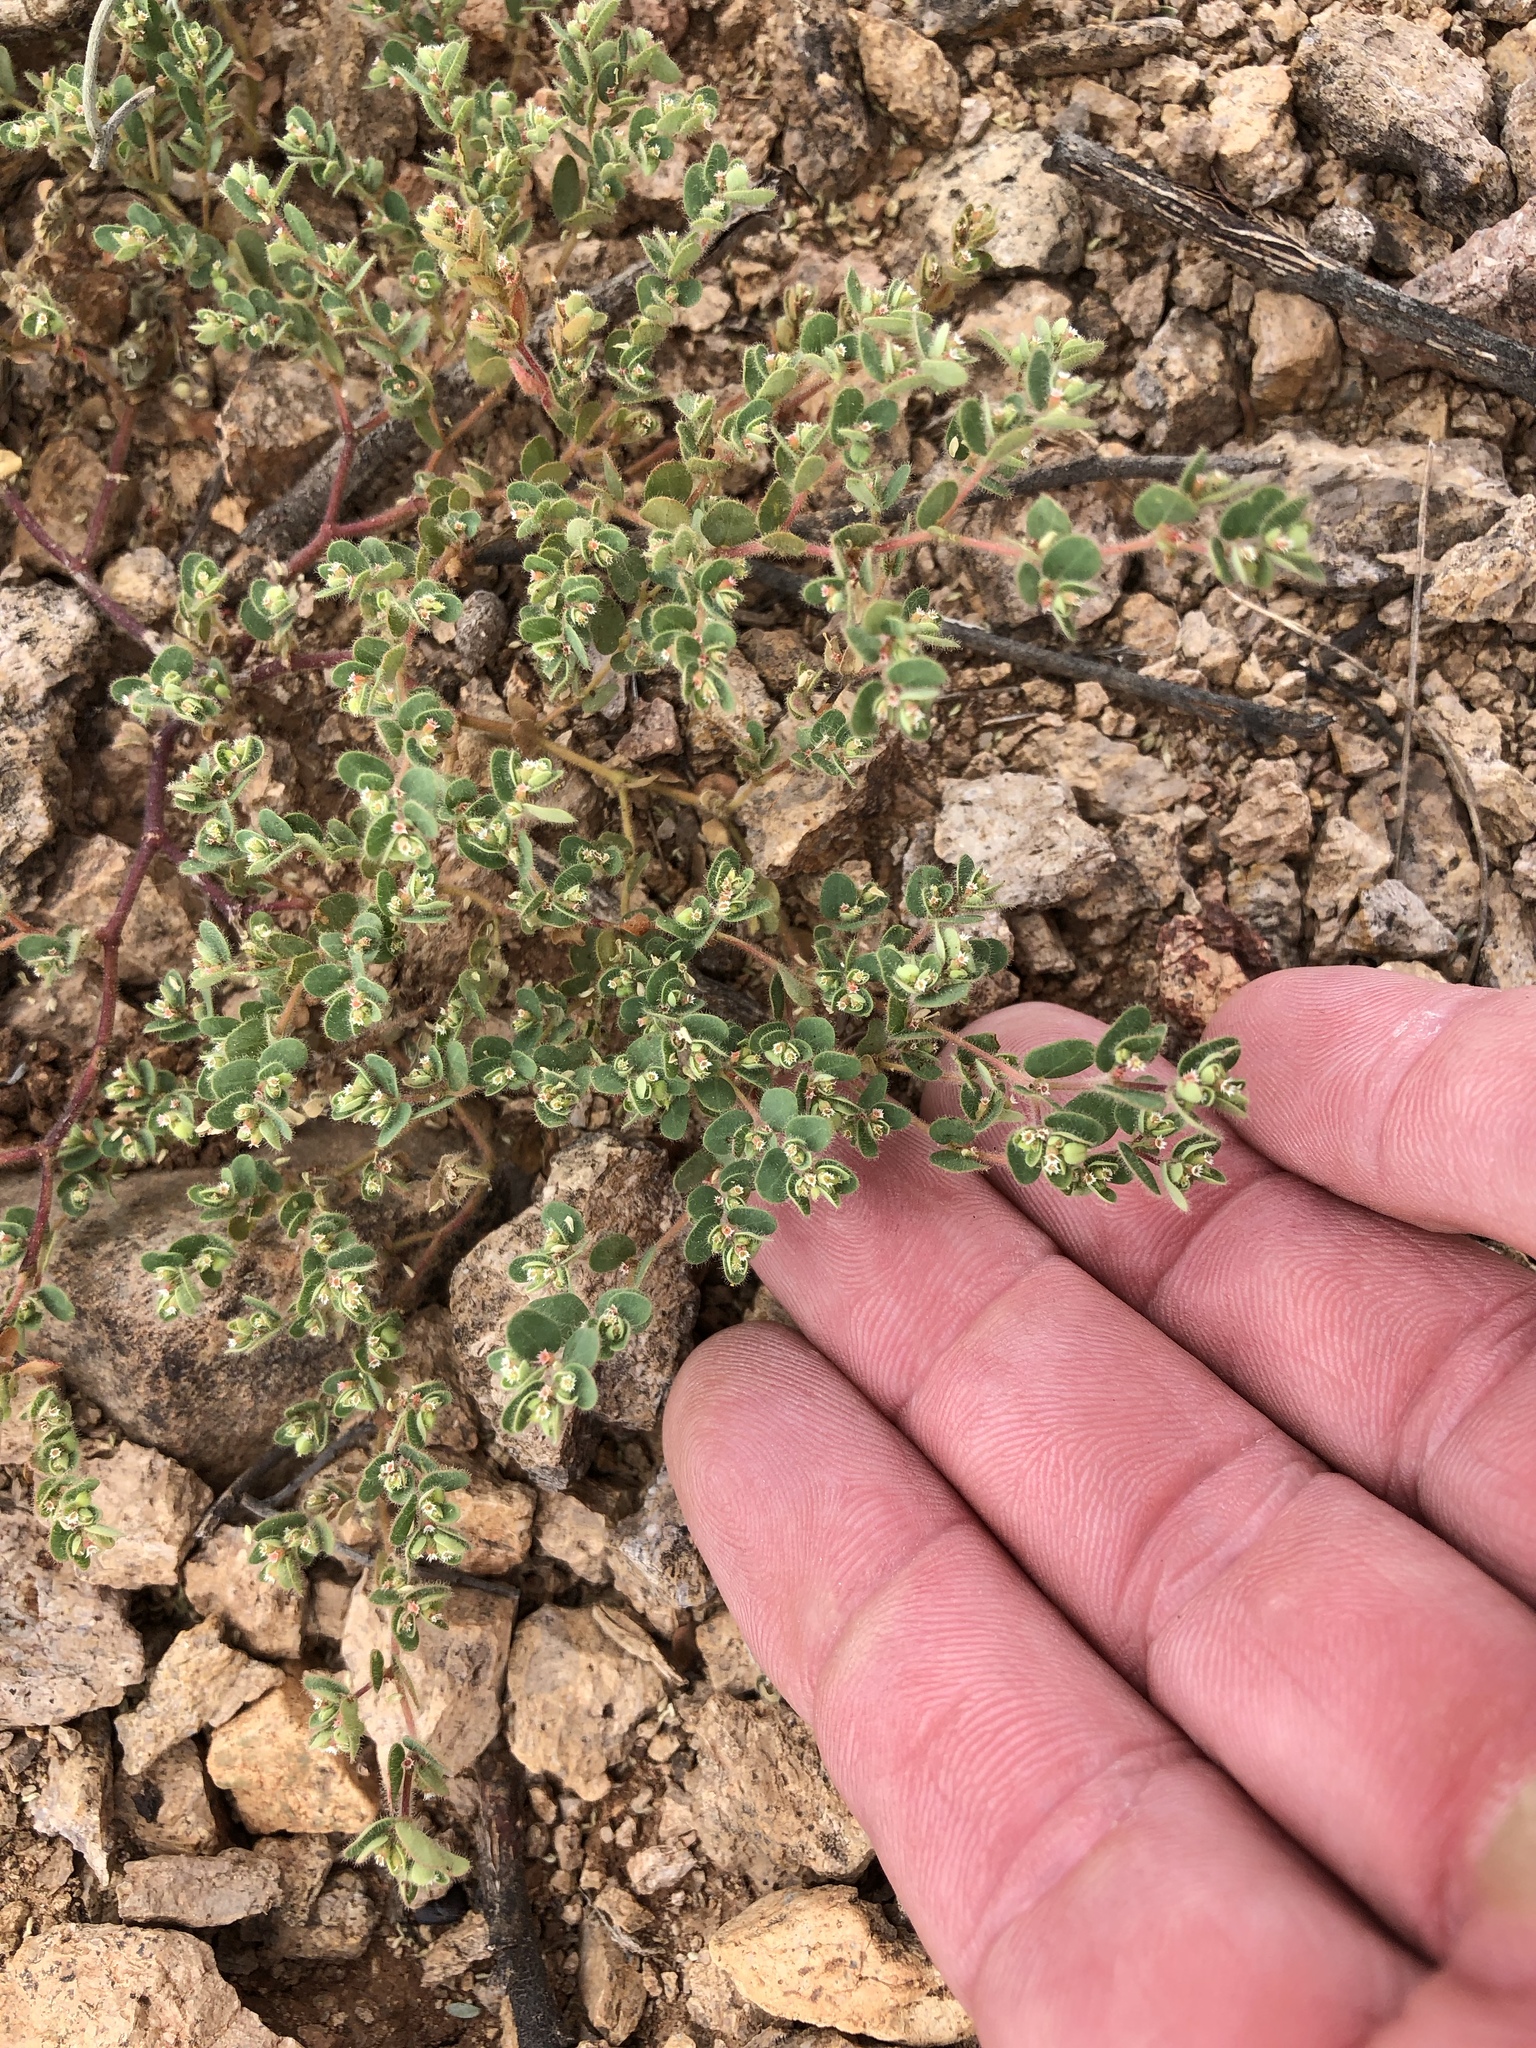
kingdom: Plantae
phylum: Tracheophyta
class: Magnoliopsida
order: Malpighiales
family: Euphorbiaceae
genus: Euphorbia
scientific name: Euphorbia setiloba
